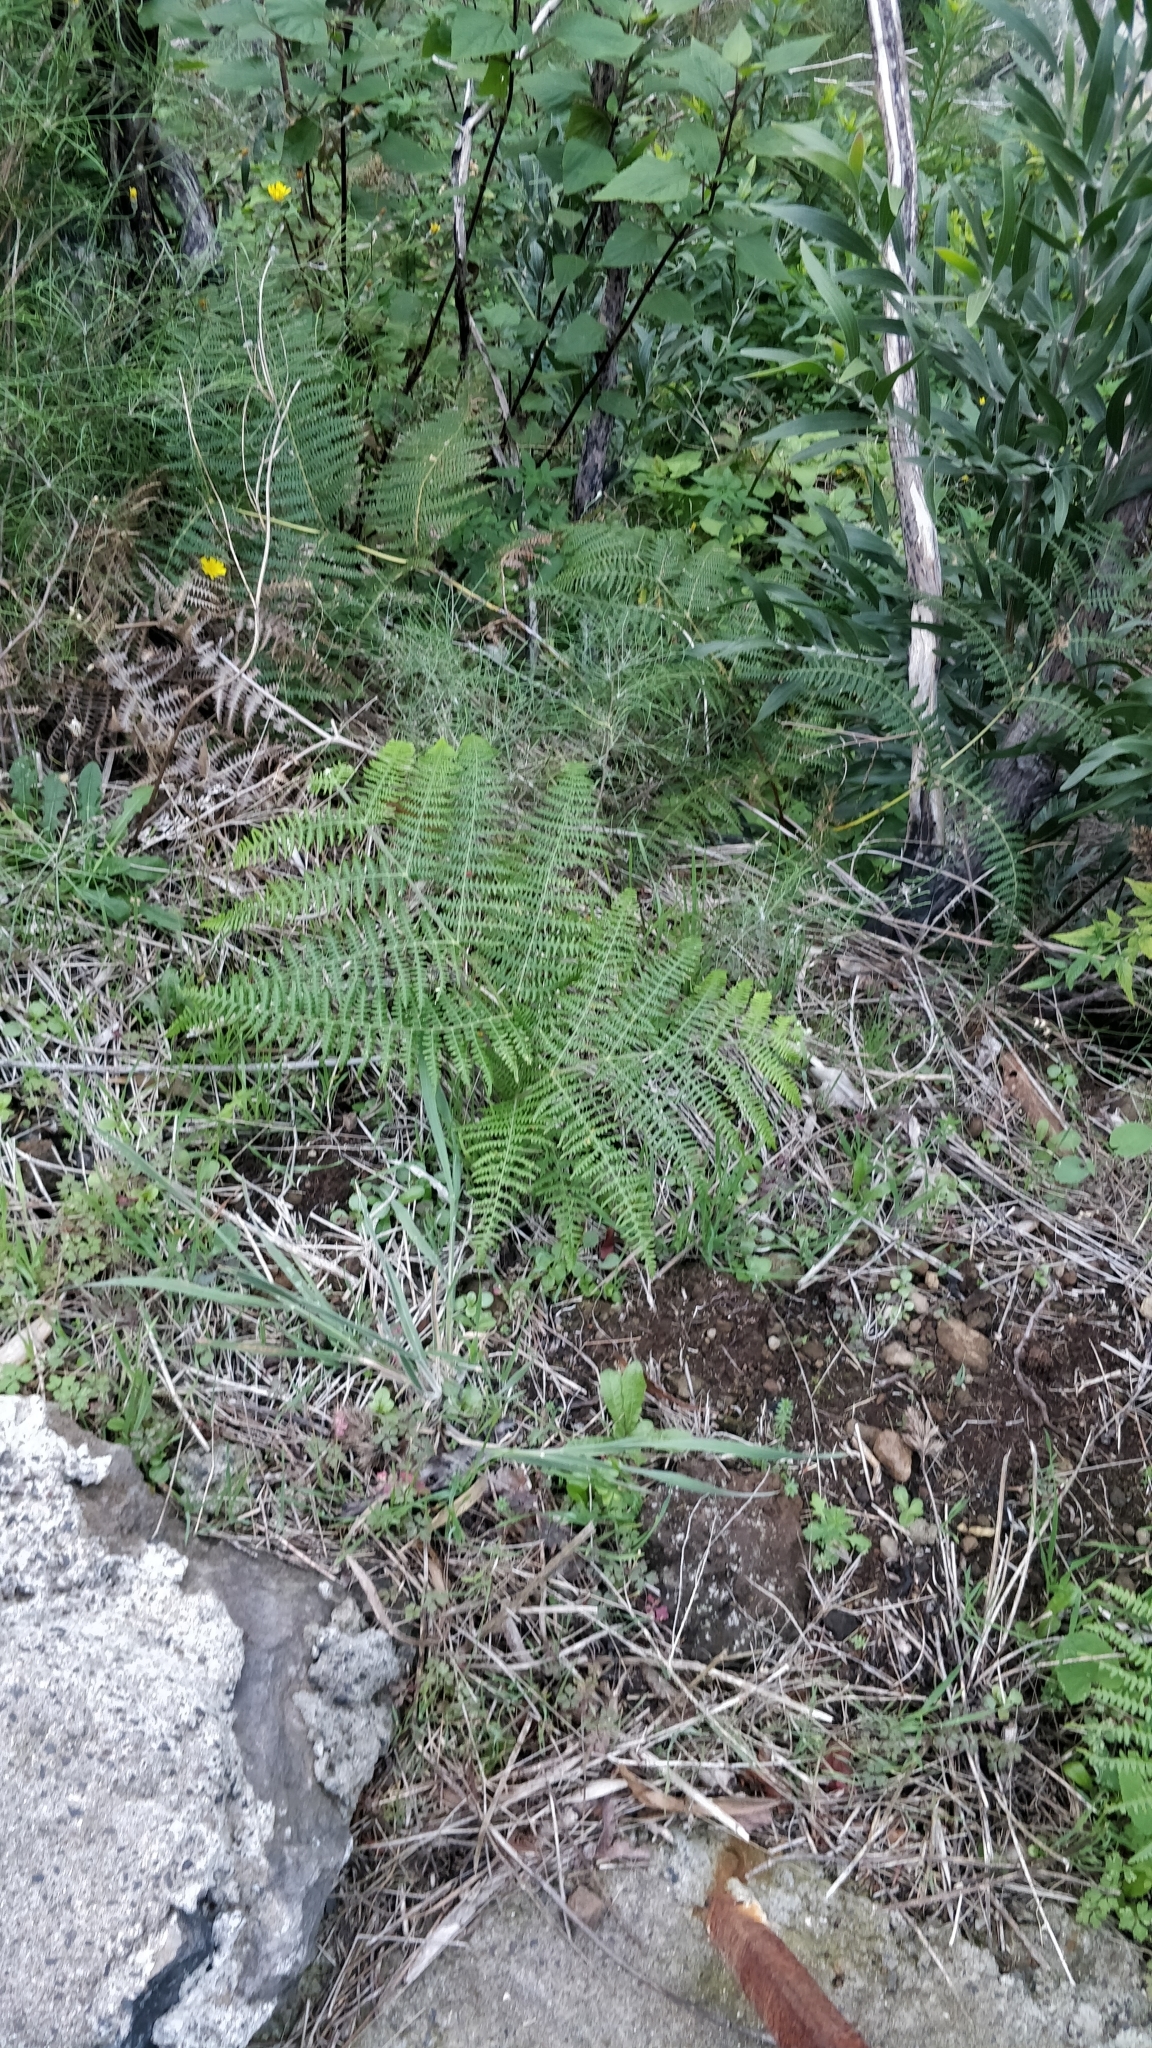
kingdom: Plantae
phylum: Tracheophyta
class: Polypodiopsida
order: Polypodiales
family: Dennstaedtiaceae
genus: Pteridium
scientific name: Pteridium aquilinum
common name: Bracken
